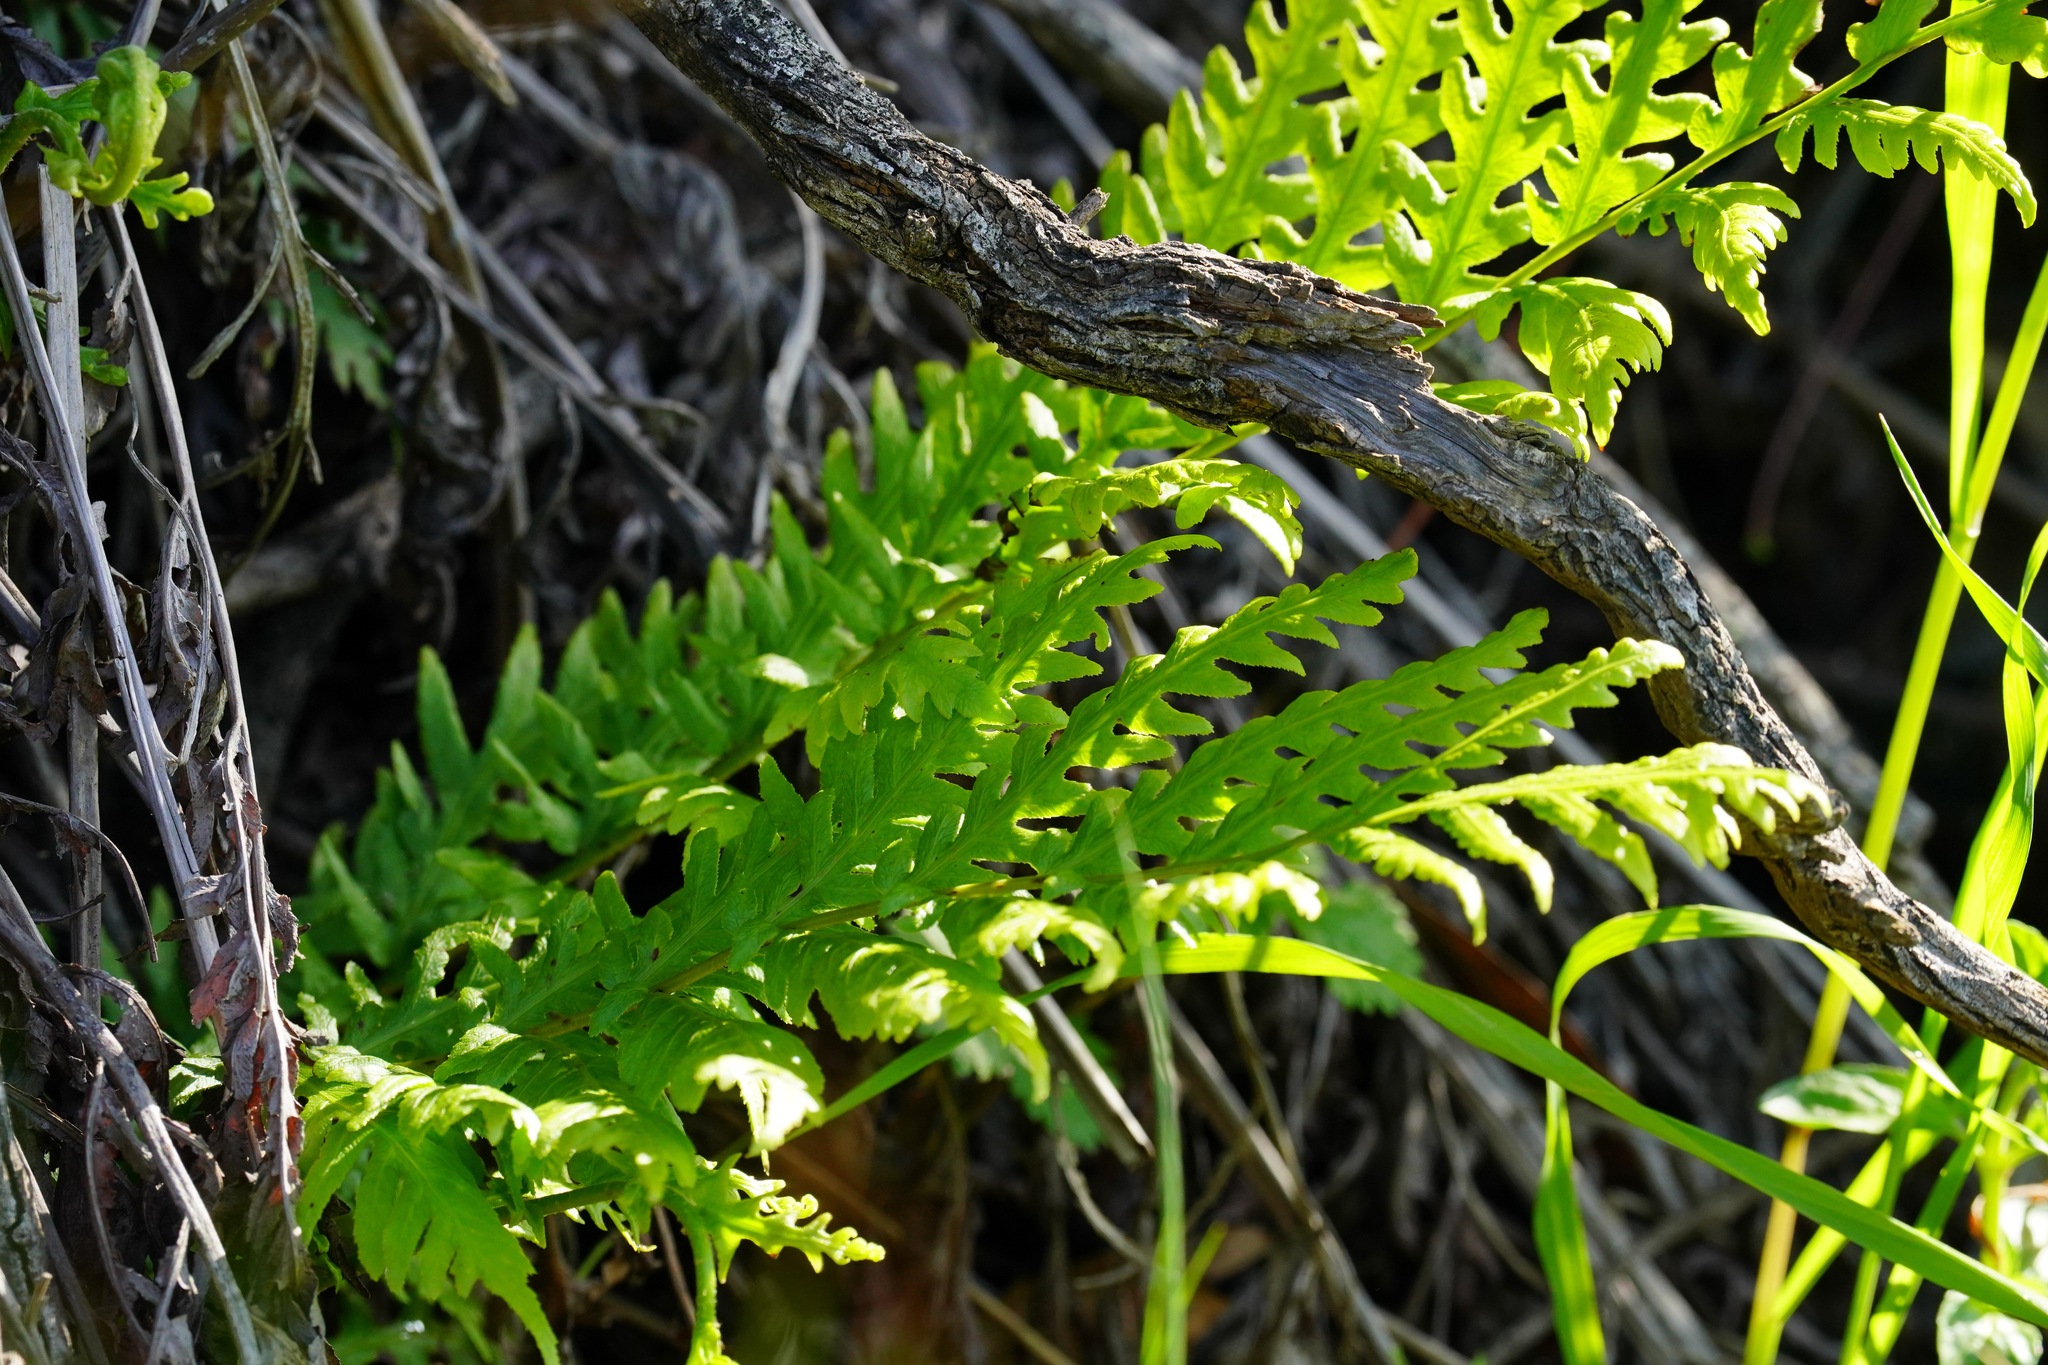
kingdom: Plantae
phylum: Tracheophyta
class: Polypodiopsida
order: Polypodiales
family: Blechnaceae
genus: Woodwardia
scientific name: Woodwardia fimbriata
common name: Giant chain fern
